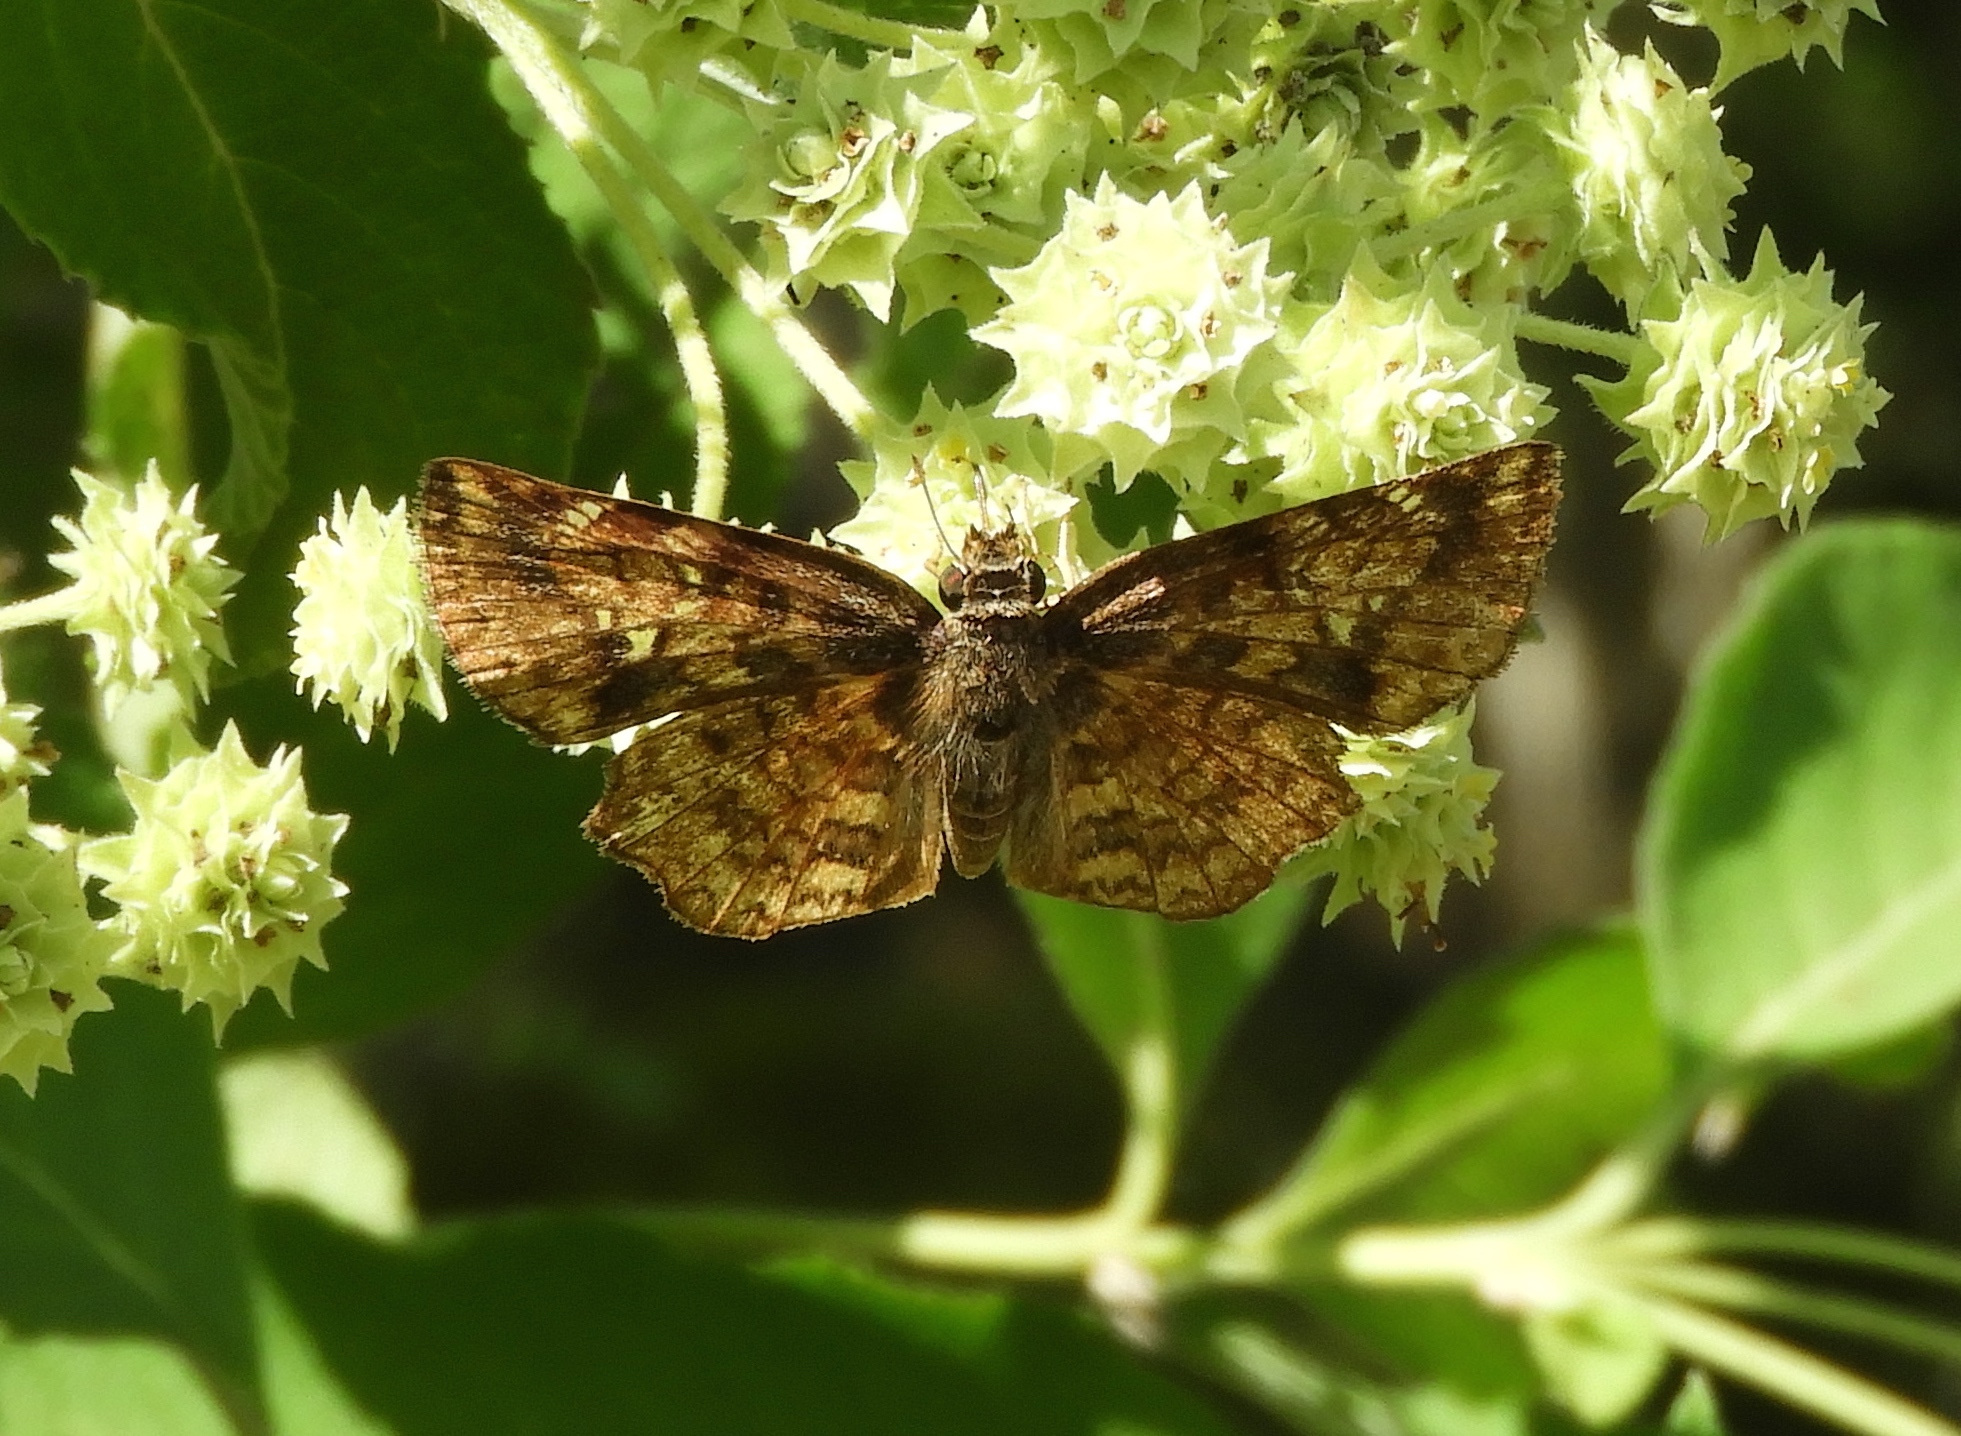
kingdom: Animalia
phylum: Arthropoda
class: Insecta
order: Lepidoptera
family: Hesperiidae
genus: Antigonus
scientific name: Antigonus erosus
